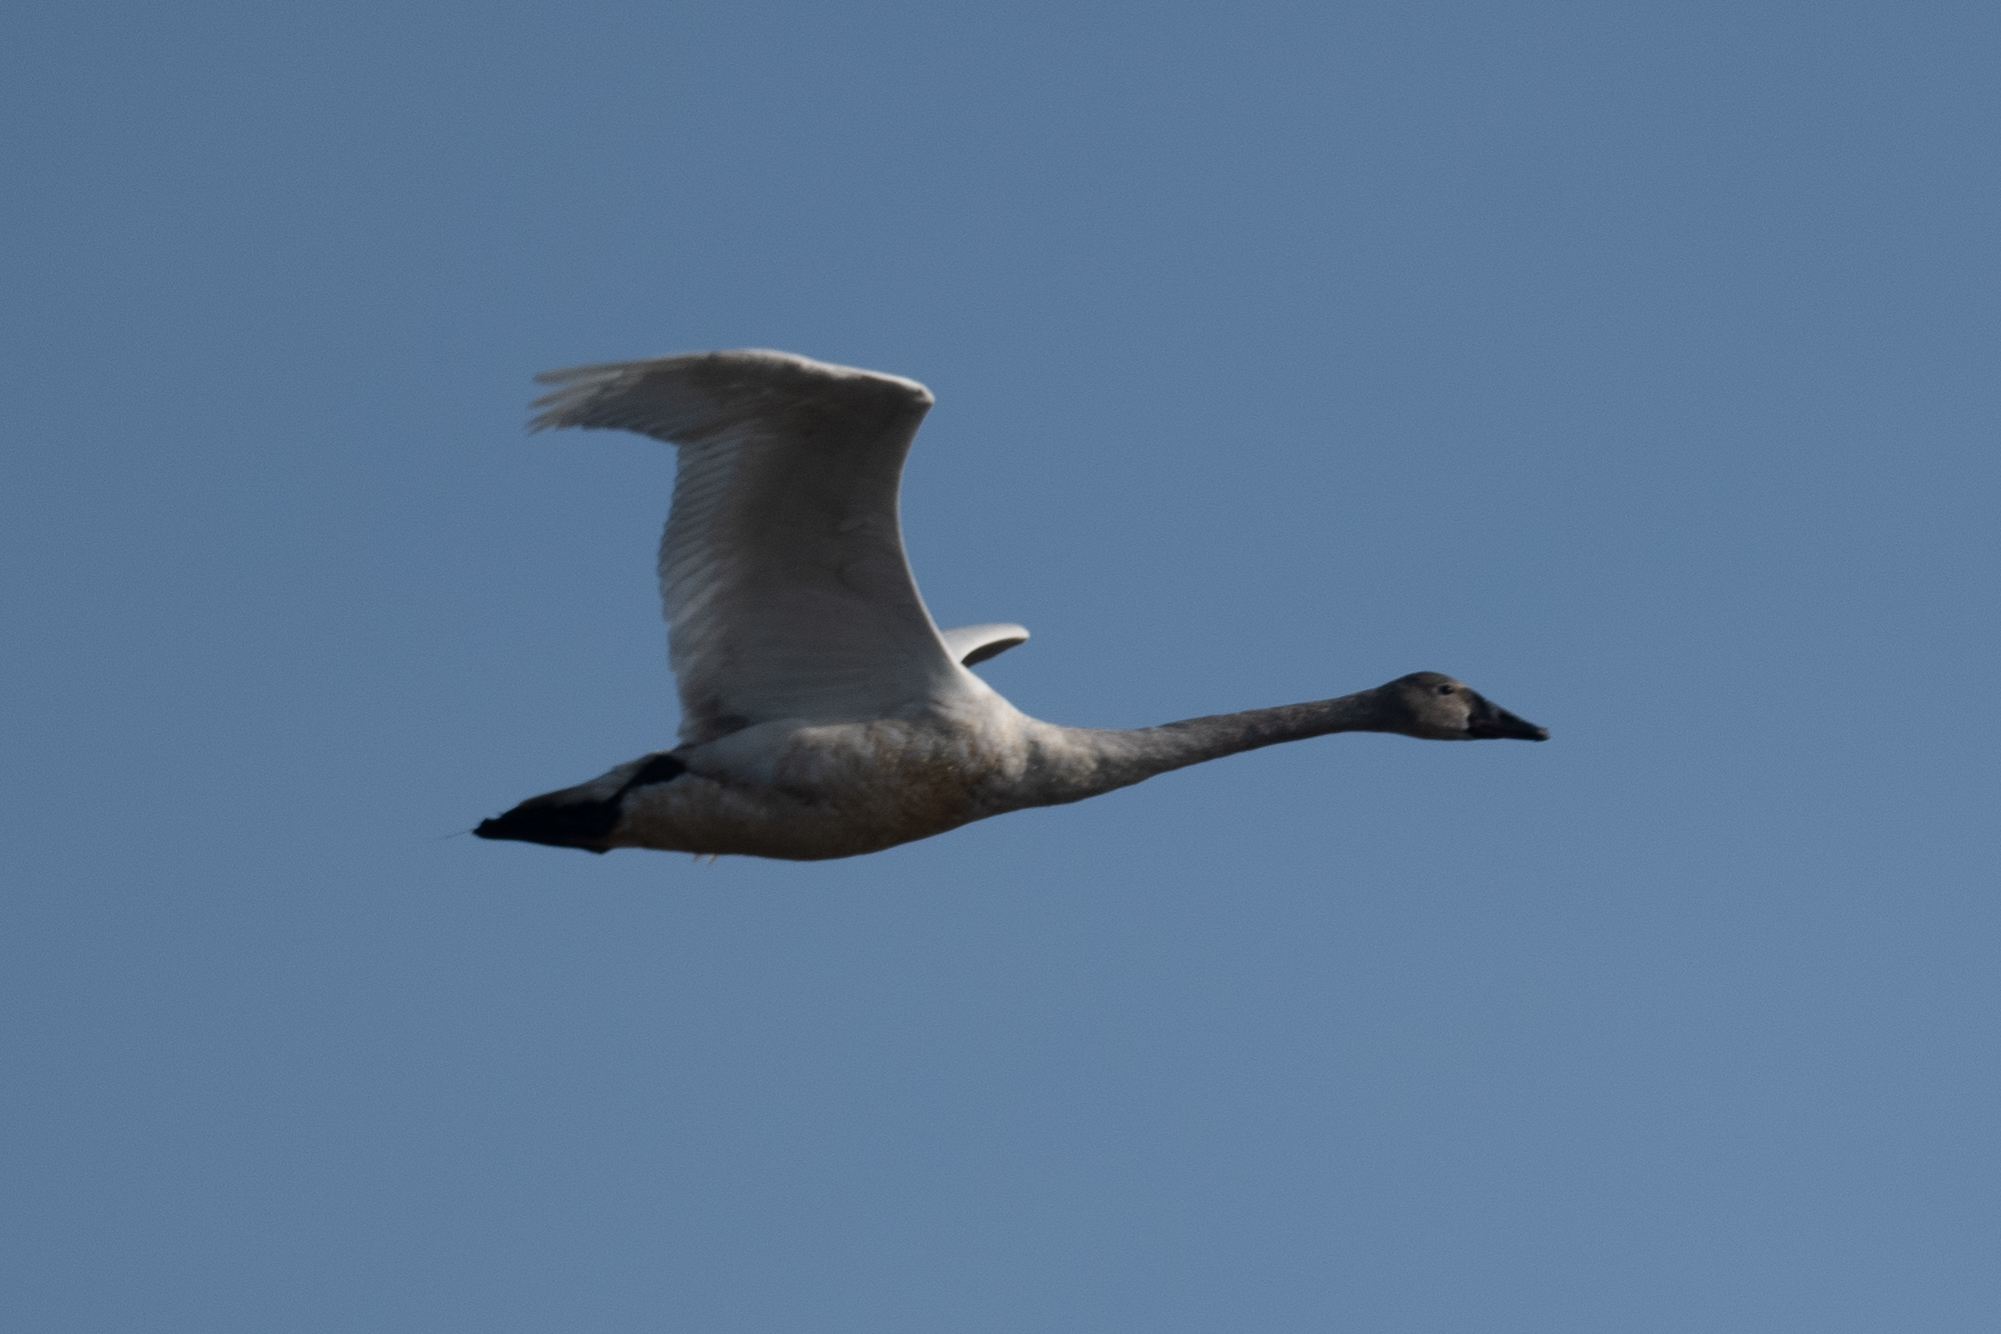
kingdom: Animalia
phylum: Chordata
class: Aves
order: Anseriformes
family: Anatidae
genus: Cygnus
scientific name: Cygnus columbianus
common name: Tundra swan
